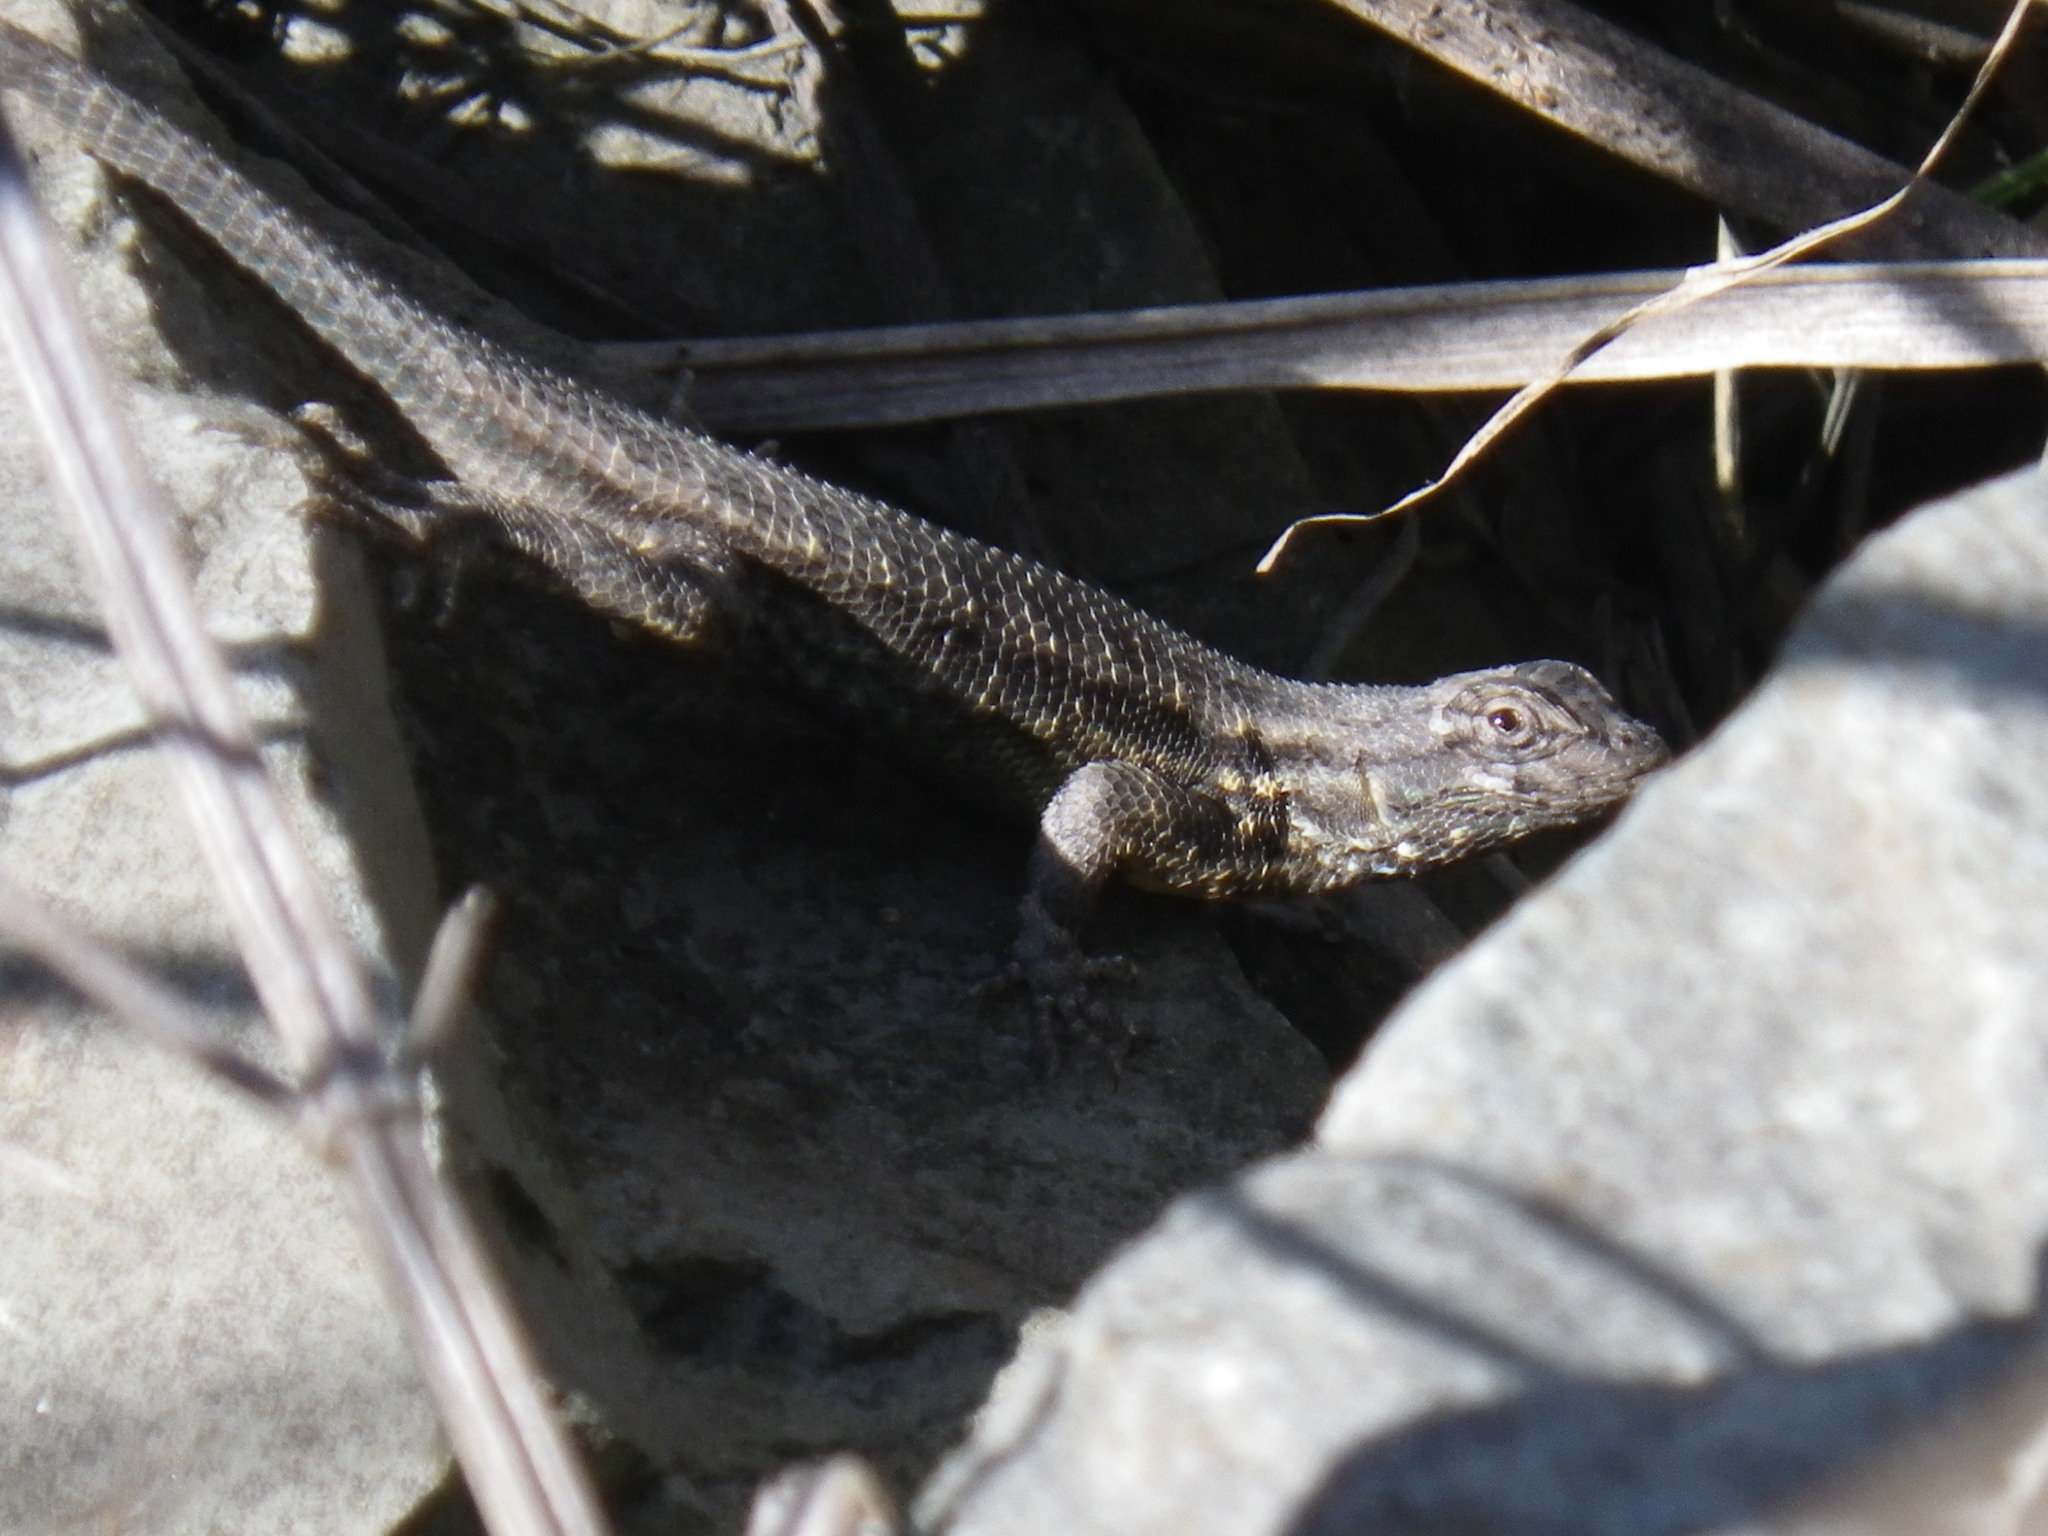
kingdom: Animalia
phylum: Chordata
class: Squamata
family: Phrynosomatidae
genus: Sceloporus
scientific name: Sceloporus occidentalis
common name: Western fence lizard
